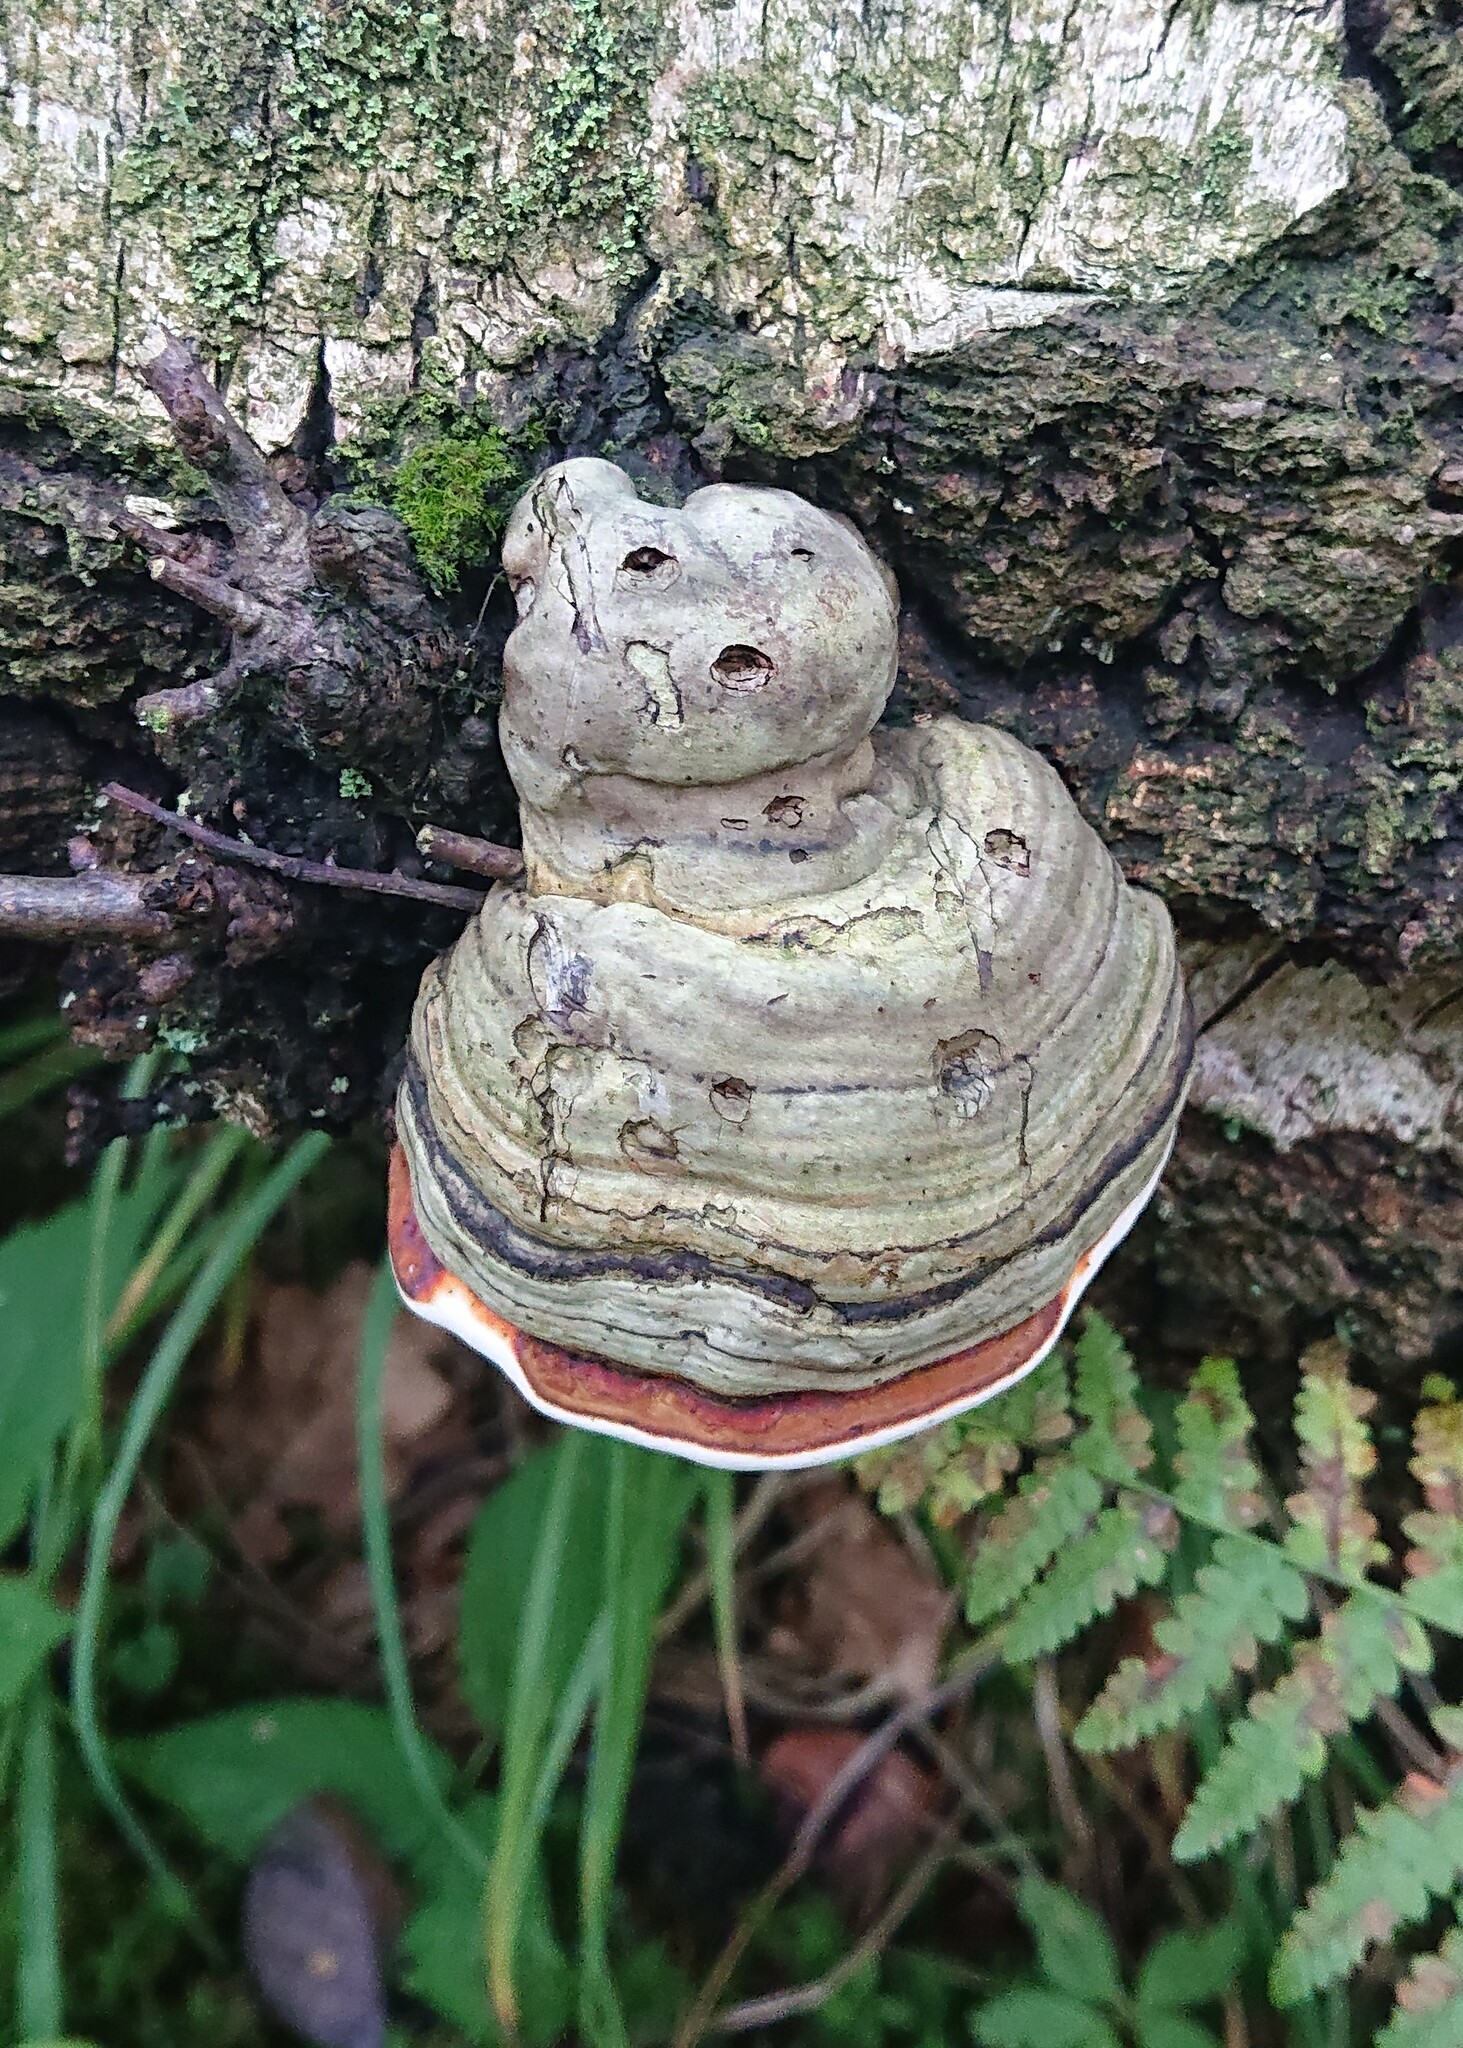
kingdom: Fungi
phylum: Basidiomycota
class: Agaricomycetes
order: Polyporales
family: Polyporaceae
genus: Fomes
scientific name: Fomes fomentarius
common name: Hoof fungus
